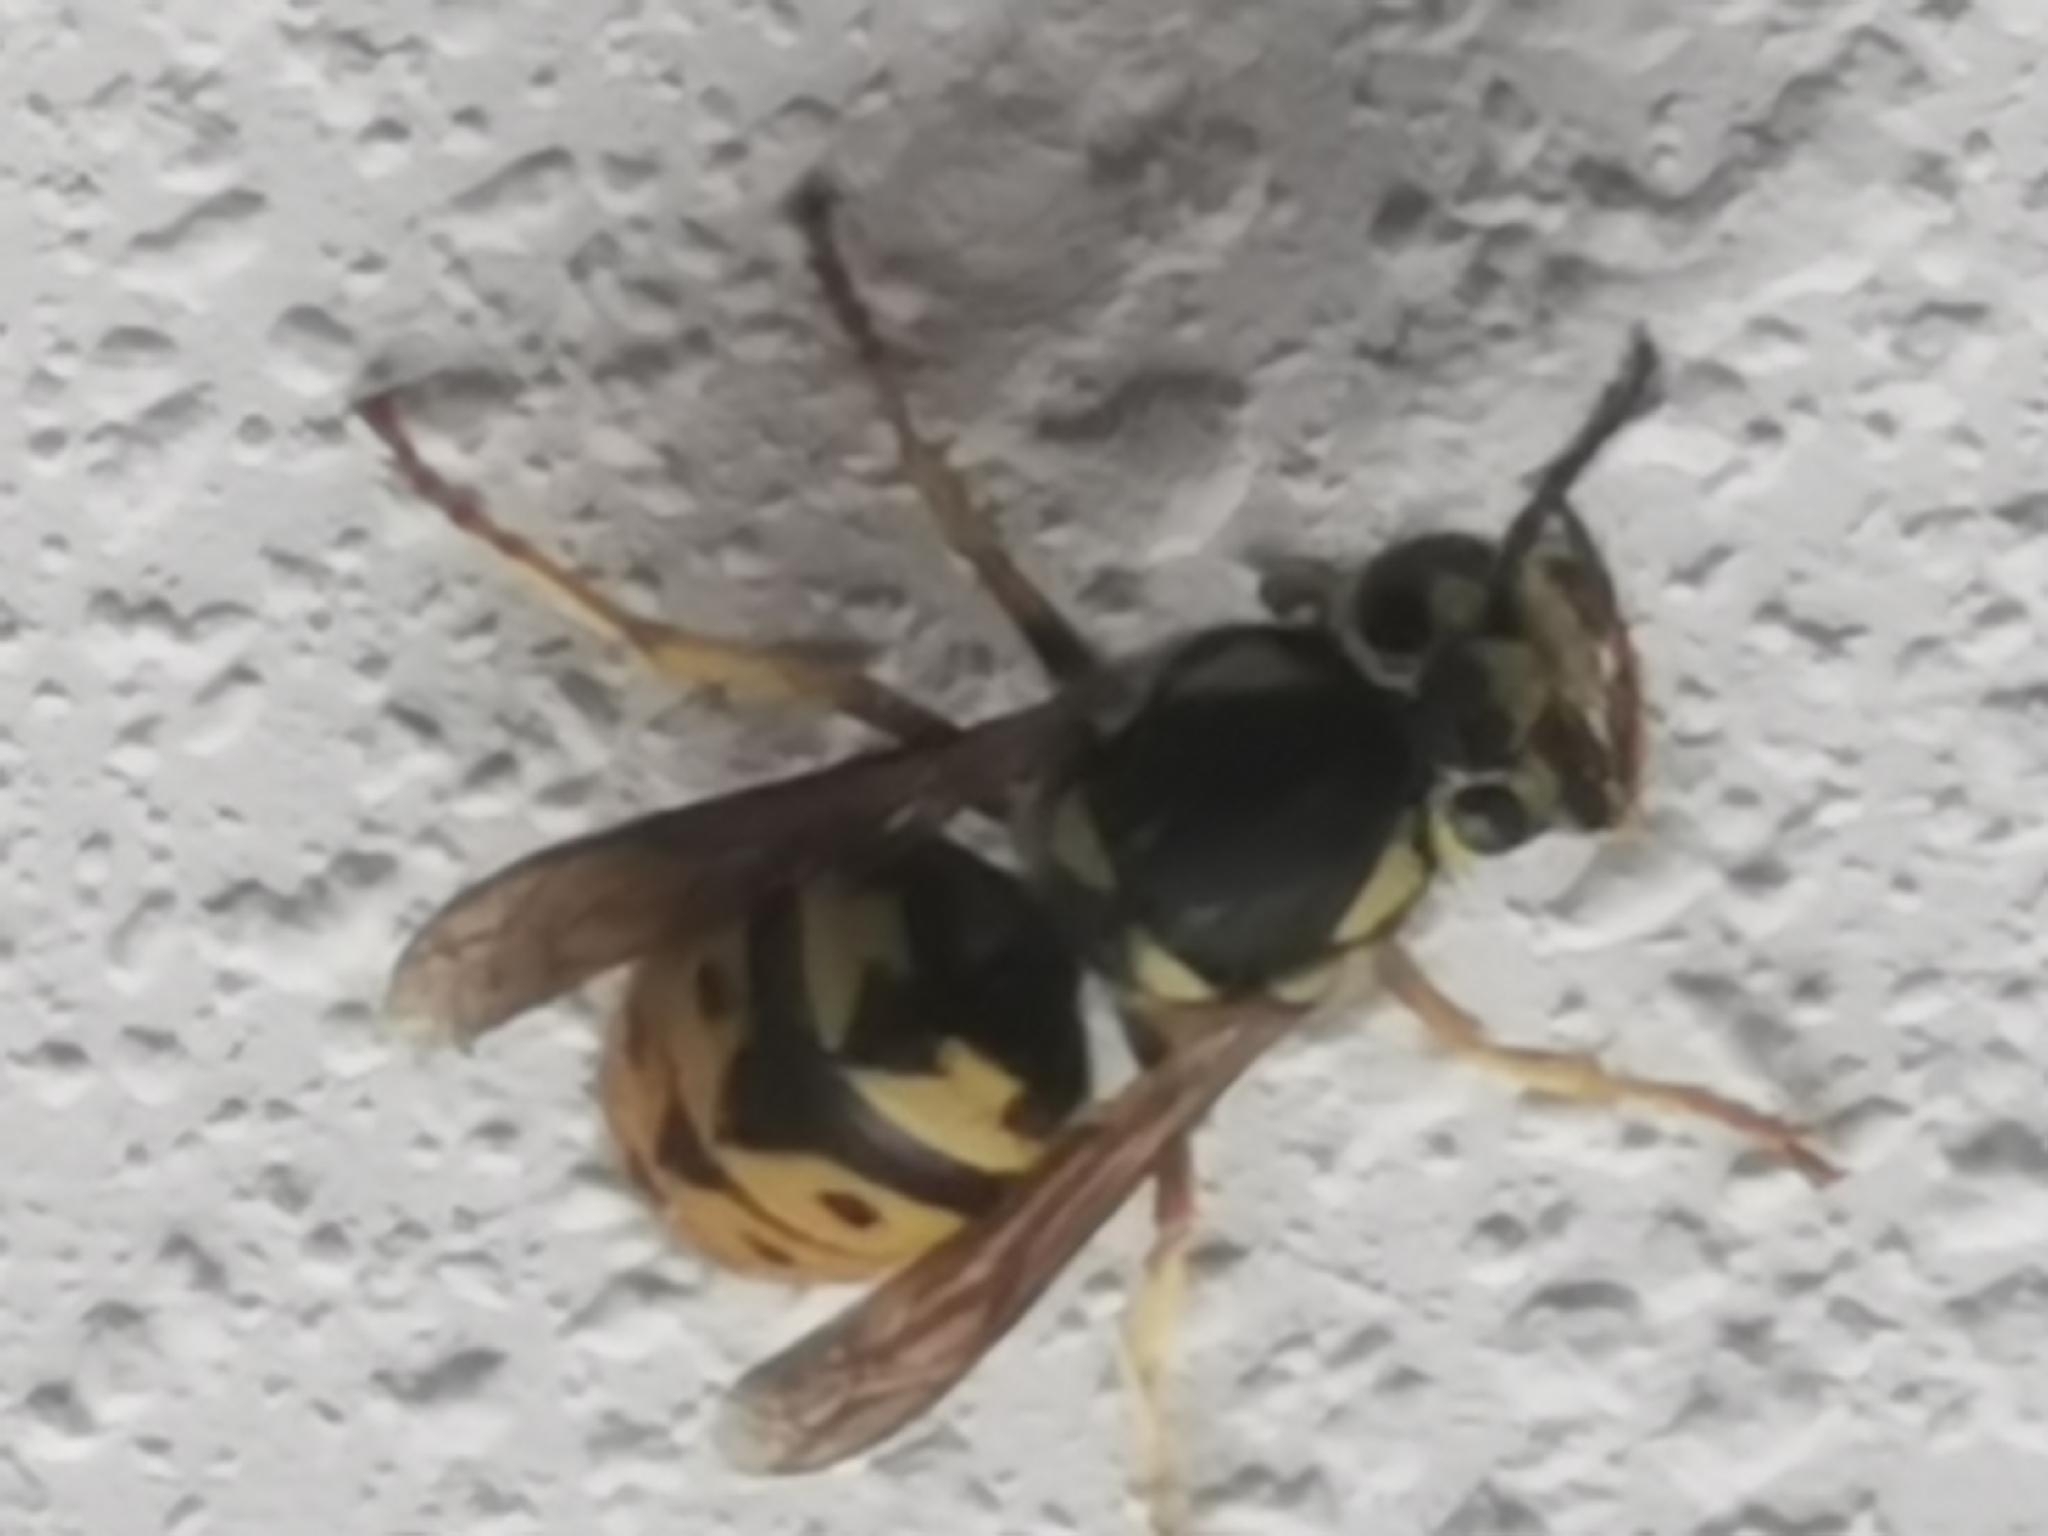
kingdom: Animalia
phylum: Arthropoda
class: Insecta
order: Hymenoptera
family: Vespidae
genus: Vespula
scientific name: Vespula pensylvanica
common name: Western yellowjacket
